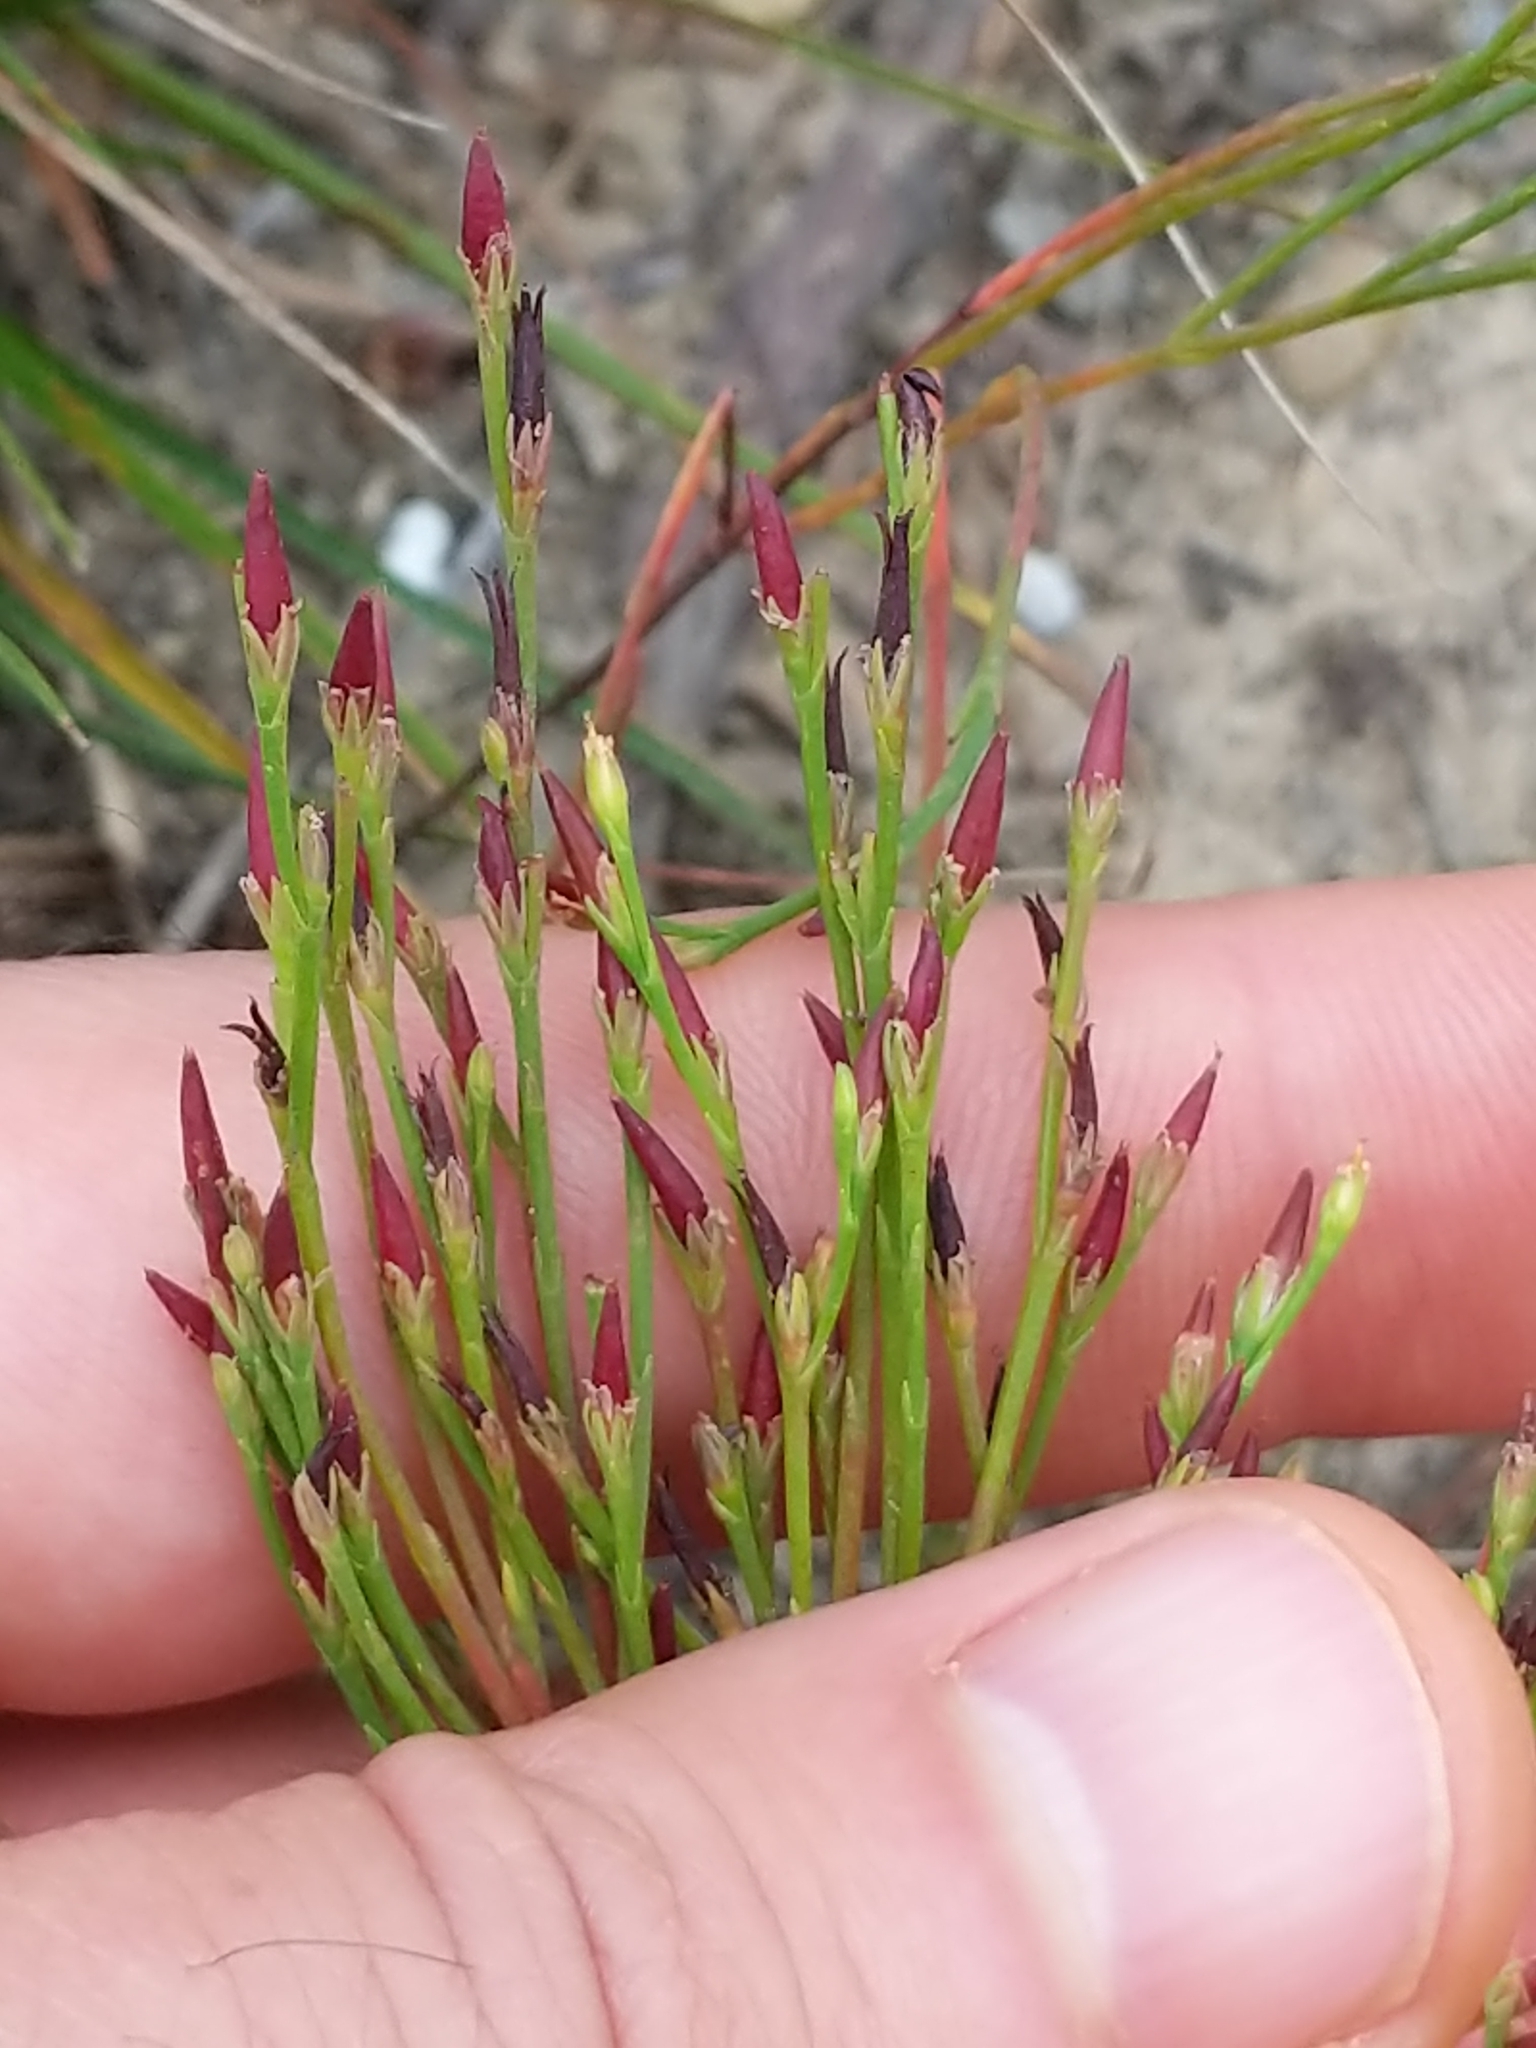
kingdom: Plantae
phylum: Tracheophyta
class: Magnoliopsida
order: Malpighiales
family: Hypericaceae
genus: Hypericum
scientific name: Hypericum gentianoides
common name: Gentian-leaved st. john's-wort
